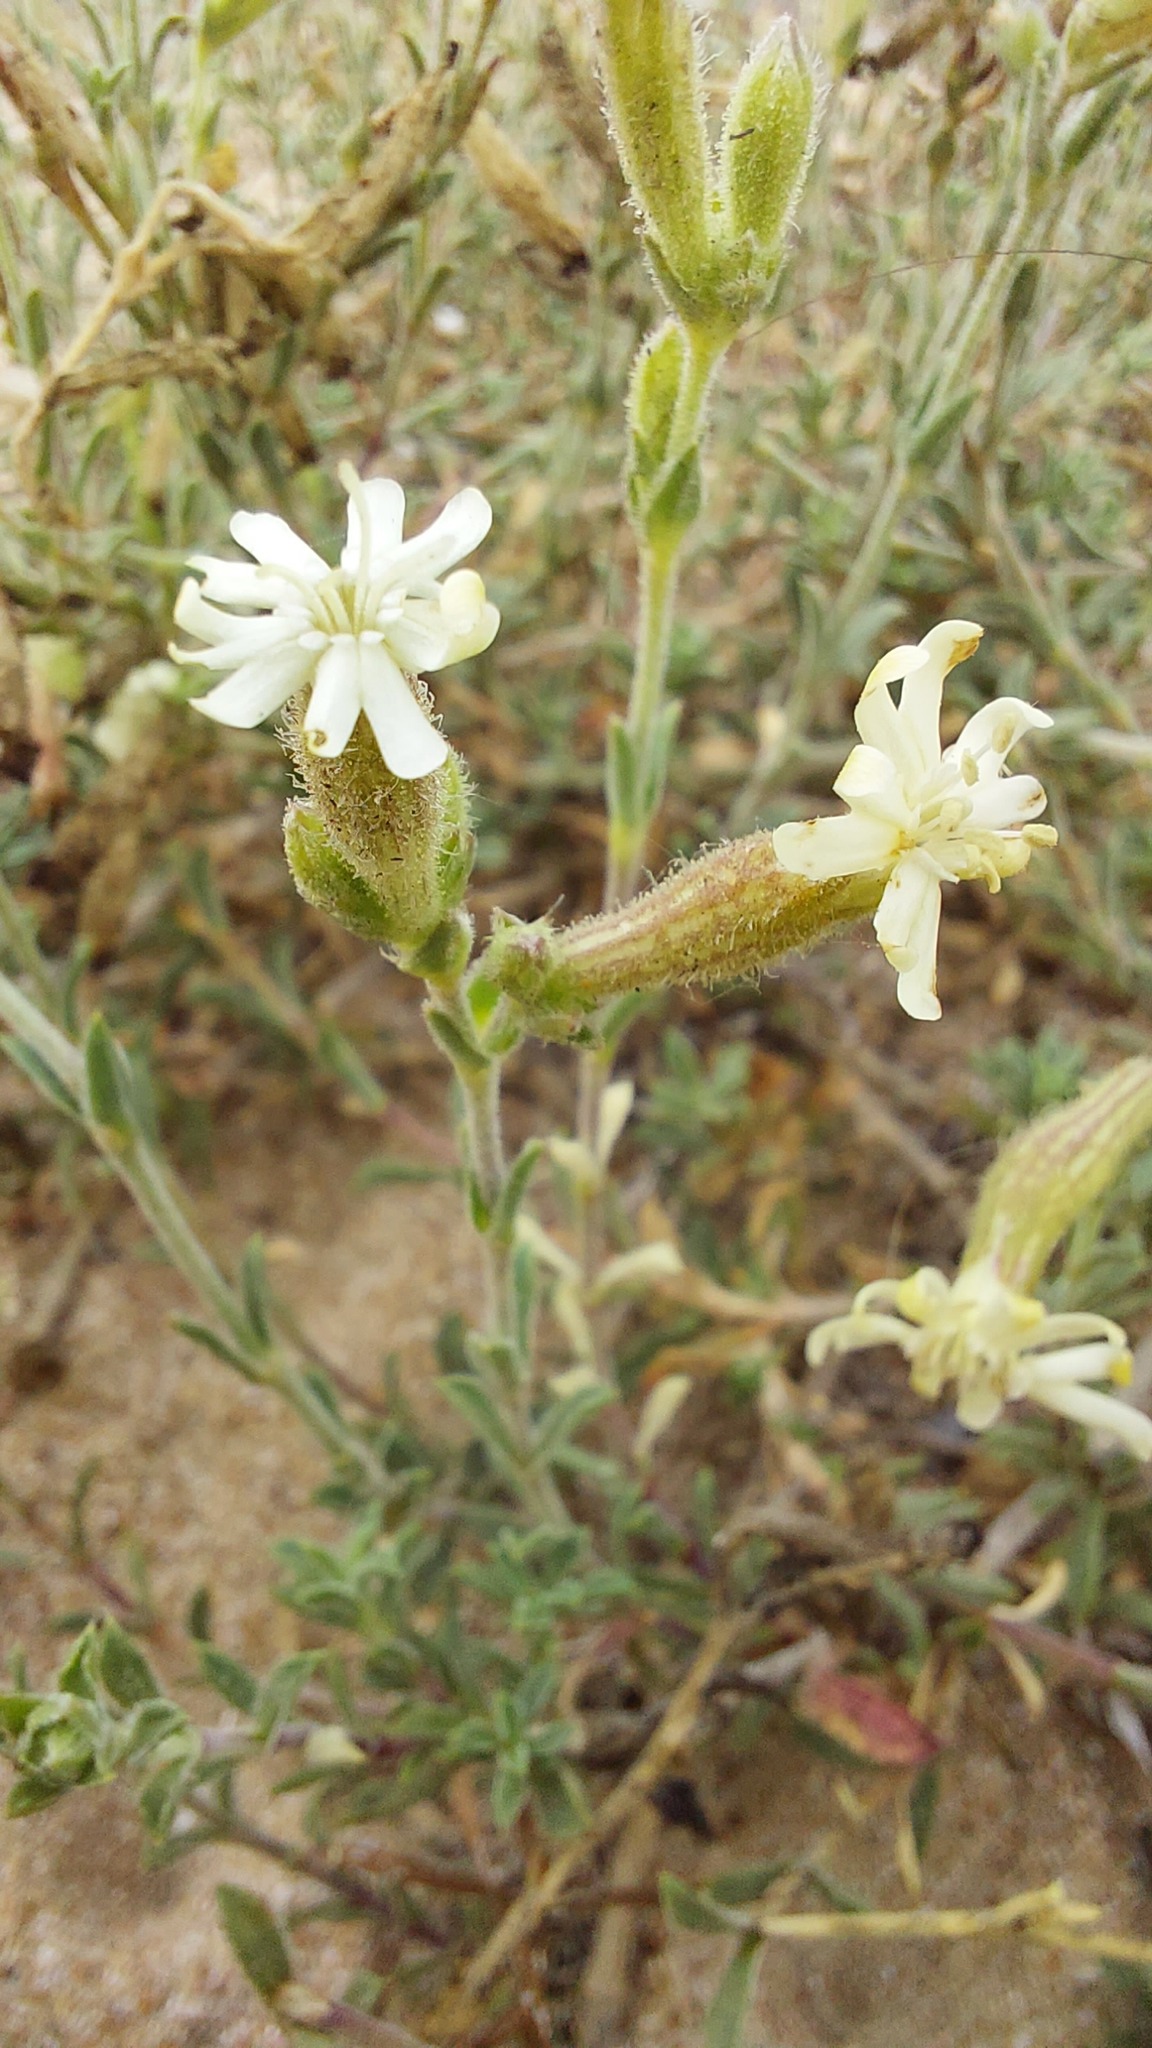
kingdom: Plantae
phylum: Tracheophyta
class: Magnoliopsida
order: Caryophyllales
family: Caryophyllaceae
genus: Silene
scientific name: Silene thymifolia
